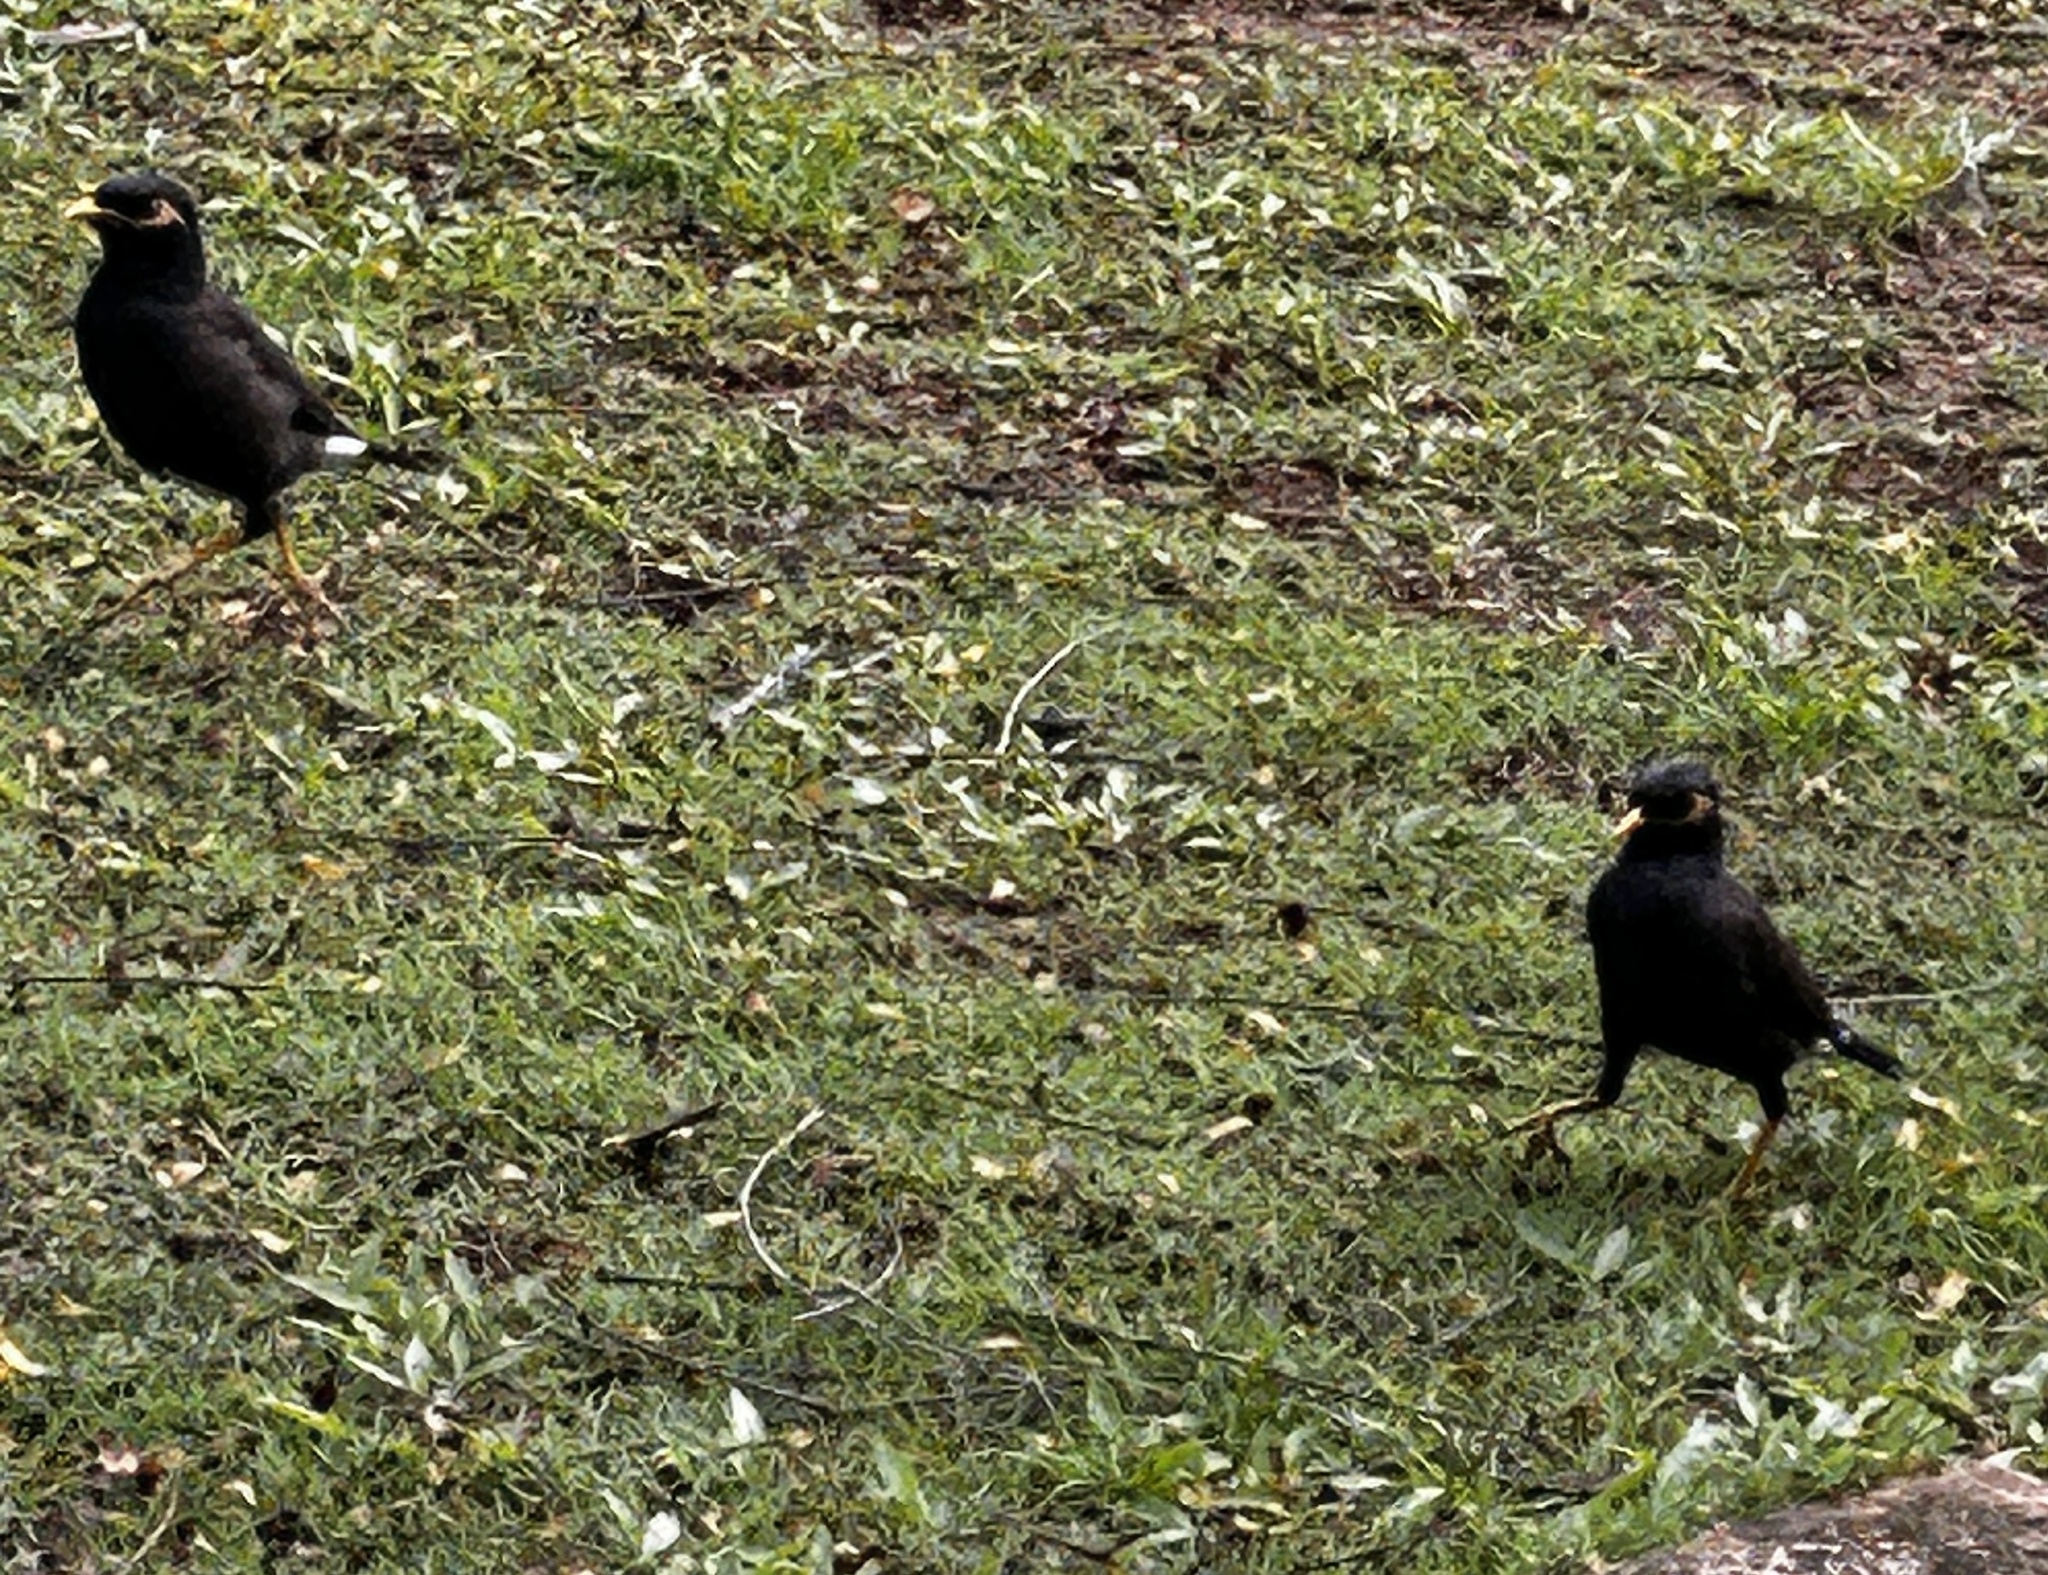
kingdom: Animalia
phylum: Chordata
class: Aves
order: Passeriformes
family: Sturnidae
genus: Acridotheres
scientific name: Acridotheres tristis
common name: Common myna
